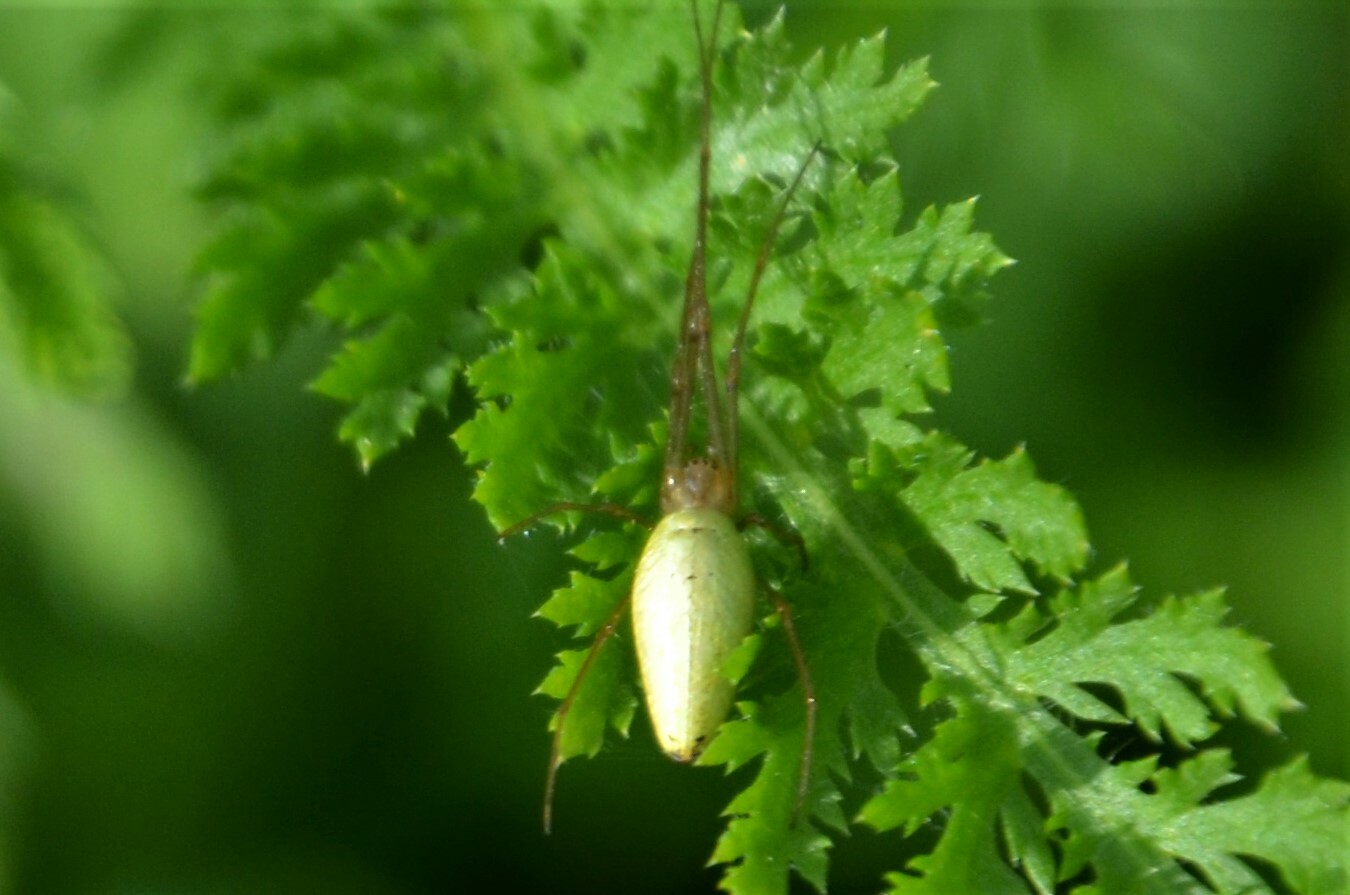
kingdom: Animalia
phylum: Arthropoda
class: Arachnida
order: Araneae
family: Tetragnathidae
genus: Tetragnatha
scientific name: Tetragnatha extensa
